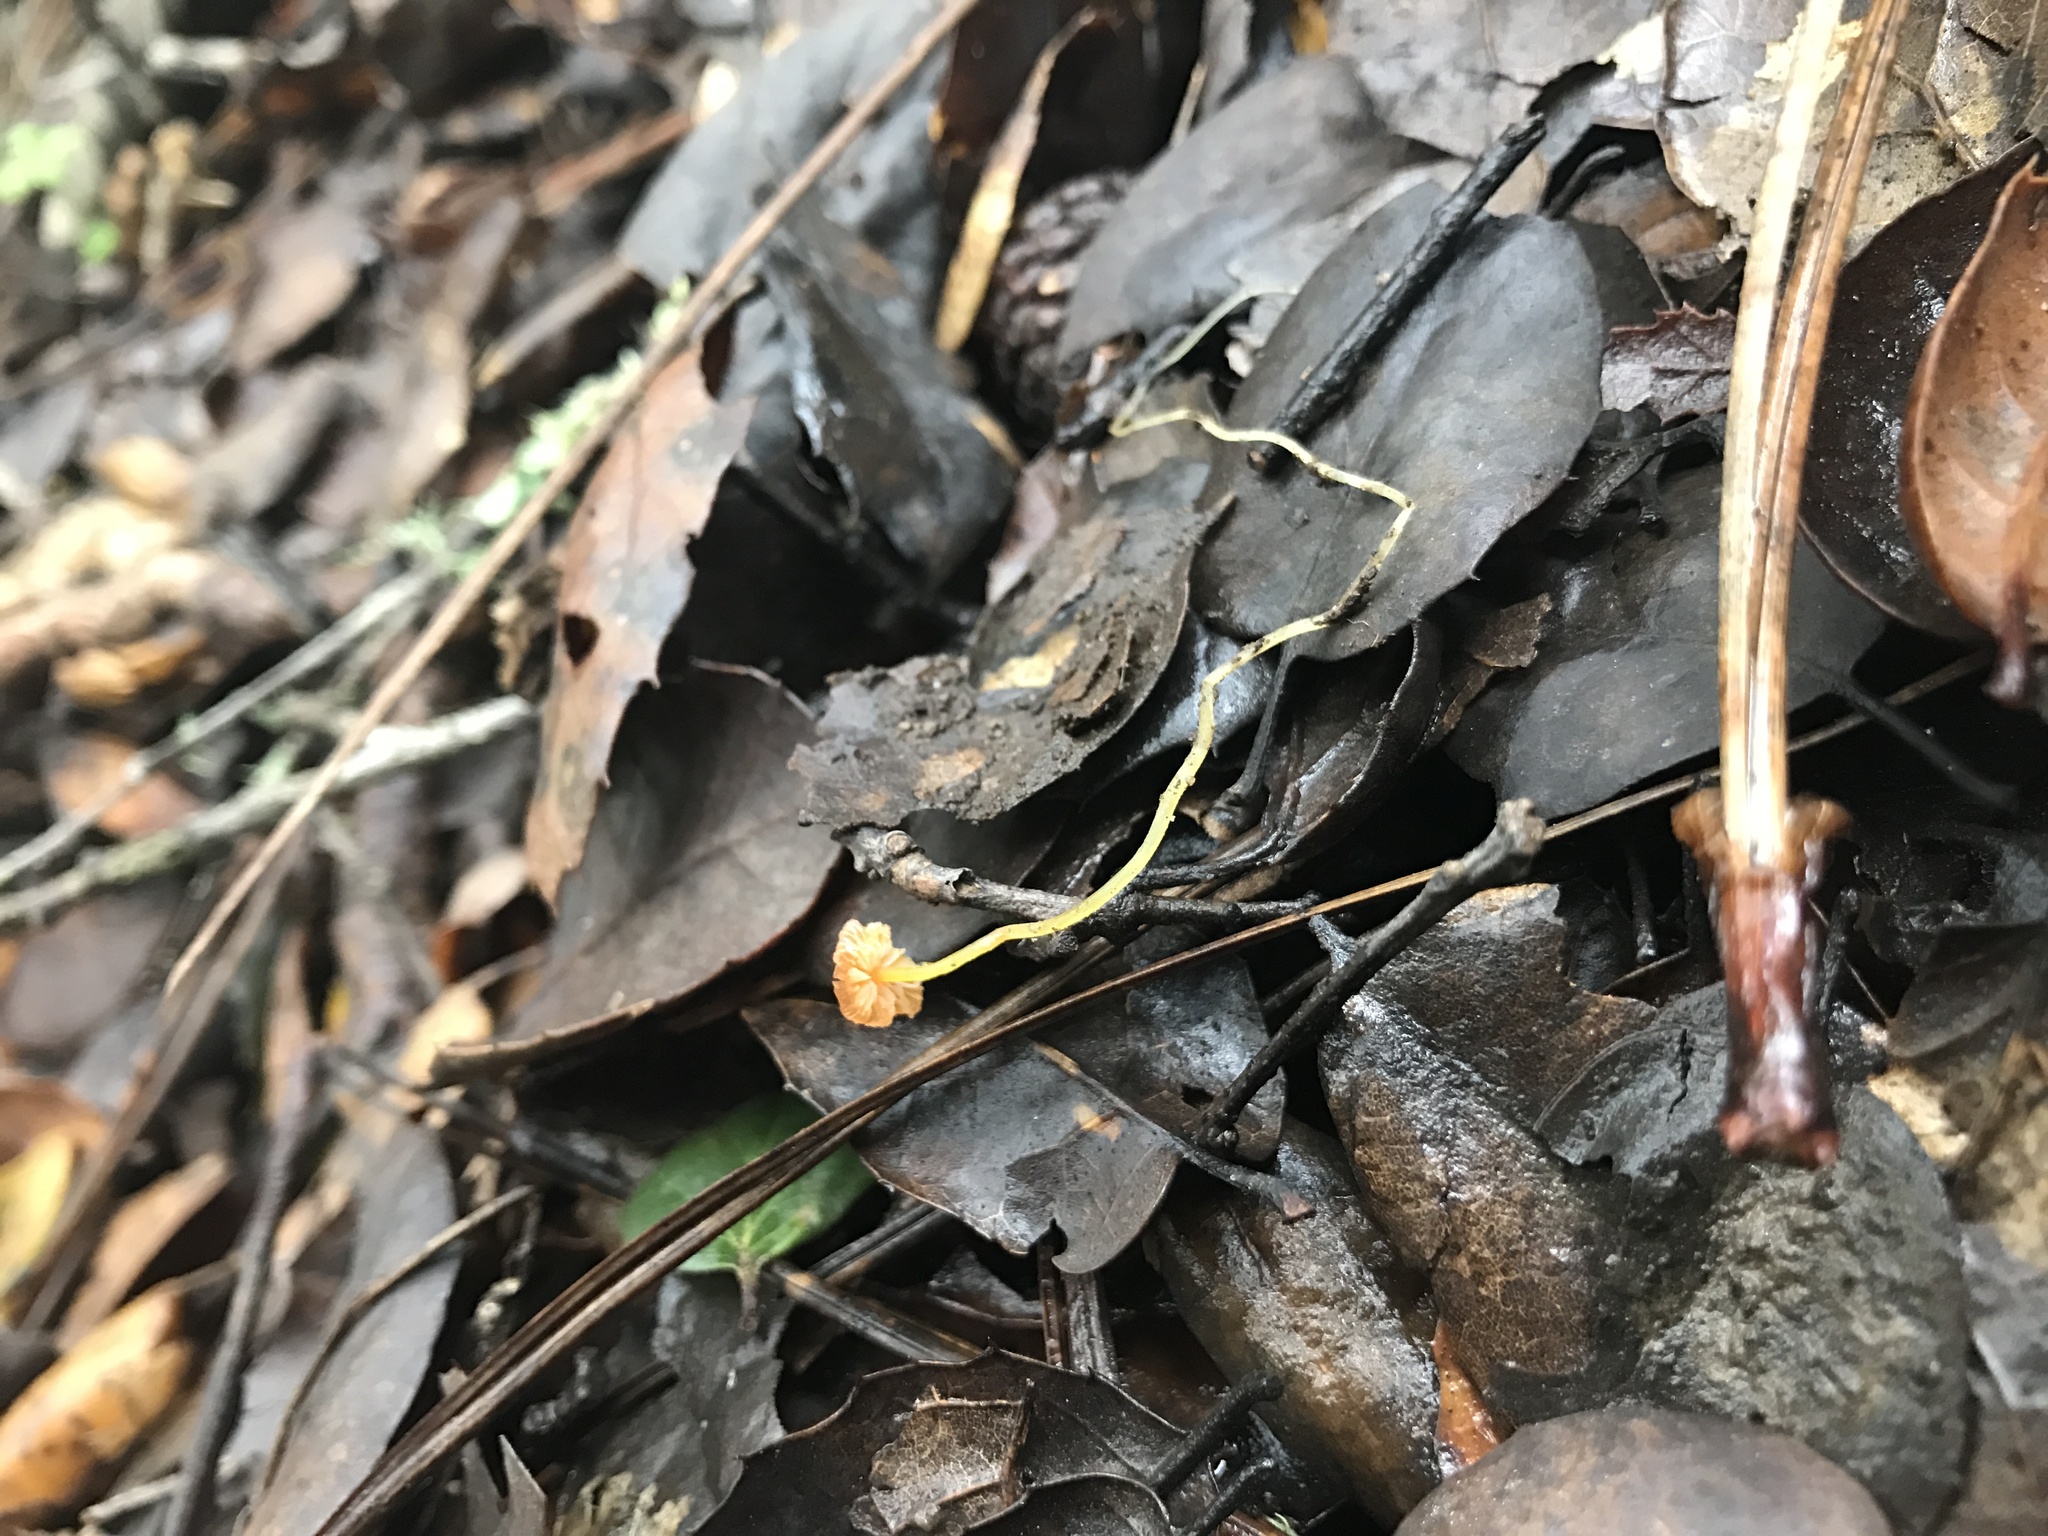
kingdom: Fungi
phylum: Basidiomycota
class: Agaricomycetes
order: Agaricales
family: Mycenaceae
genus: Mycena
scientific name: Mycena acicula
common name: Orange bonnet
